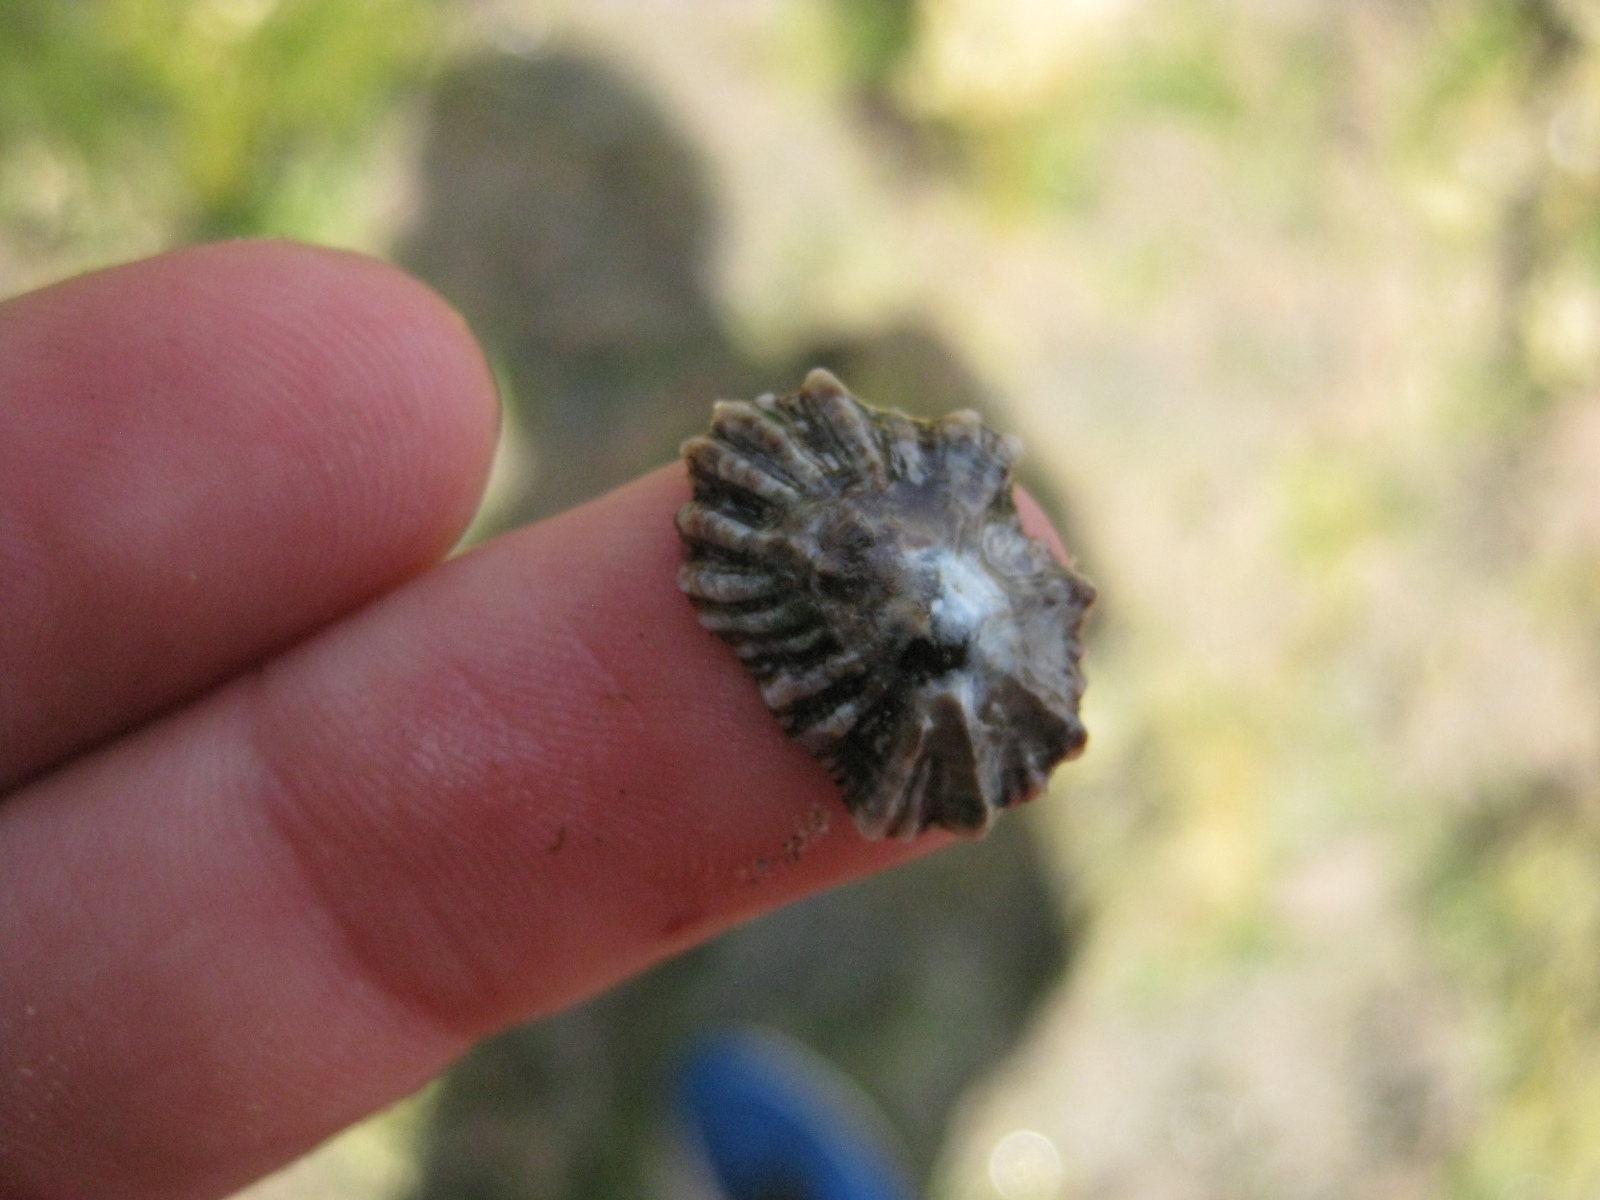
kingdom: Animalia
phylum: Mollusca
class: Gastropoda
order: Siphonariida
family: Siphonariidae
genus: Siphonaria
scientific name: Siphonaria australis
